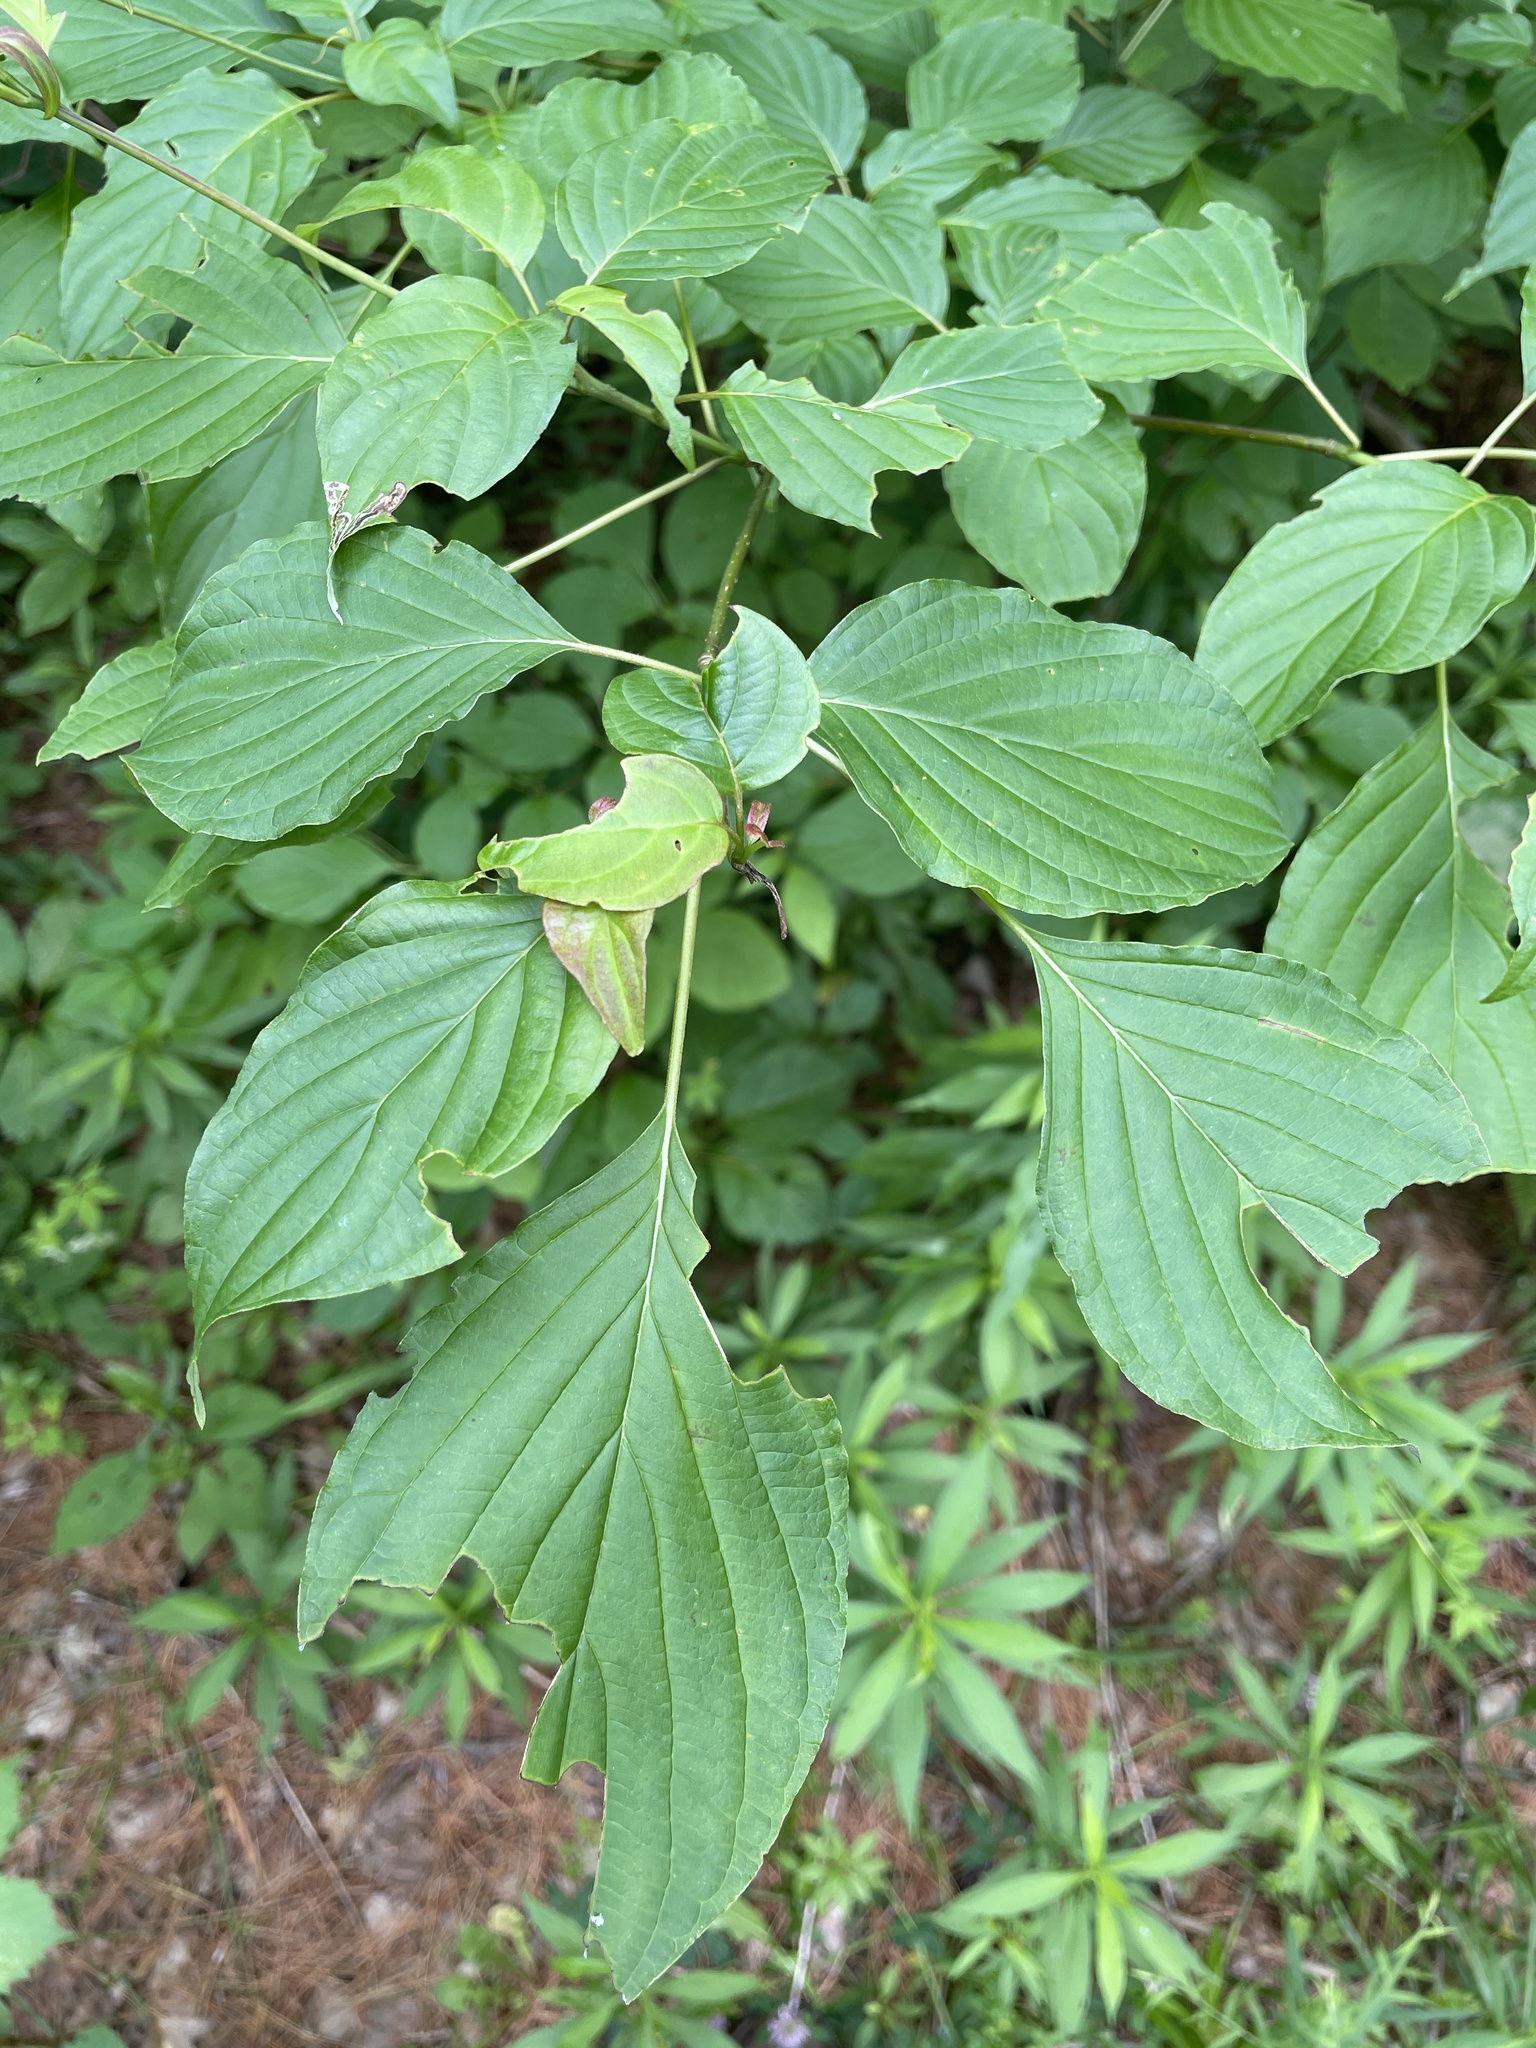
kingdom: Plantae
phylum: Tracheophyta
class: Magnoliopsida
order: Cornales
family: Cornaceae
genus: Cornus
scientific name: Cornus alternifolia
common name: Pagoda dogwood
